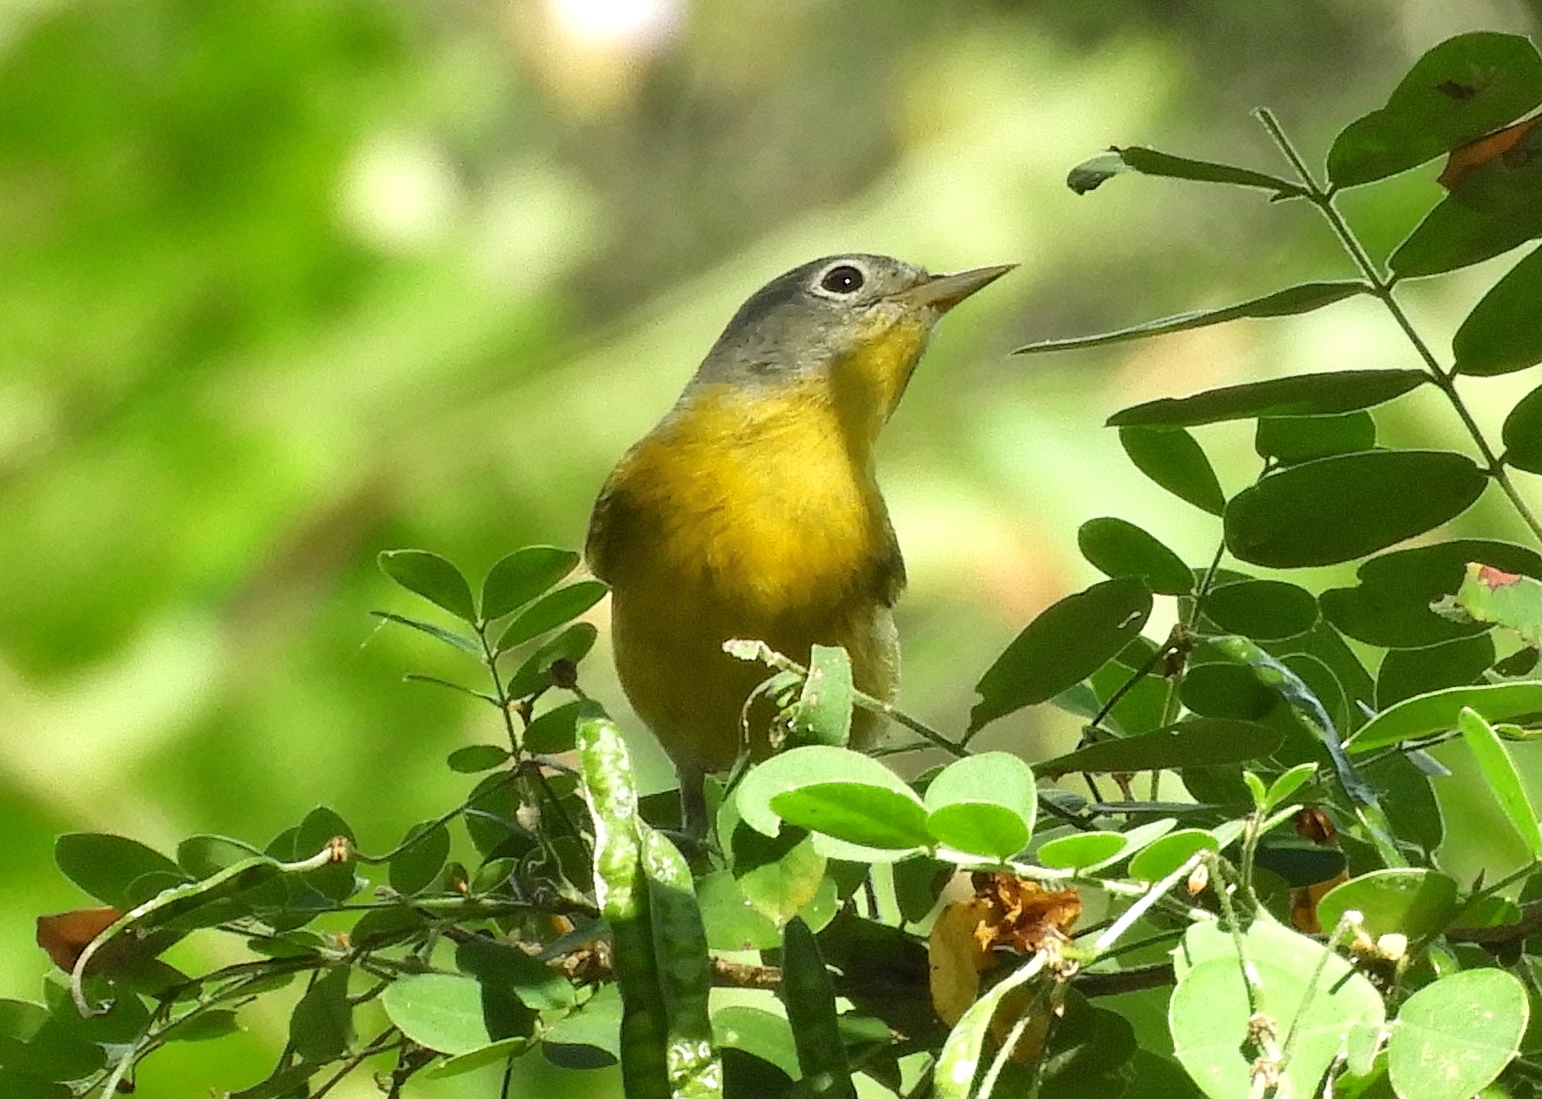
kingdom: Animalia
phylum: Chordata
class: Aves
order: Passeriformes
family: Parulidae
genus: Leiothlypis
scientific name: Leiothlypis ruficapilla
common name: Nashville warbler
